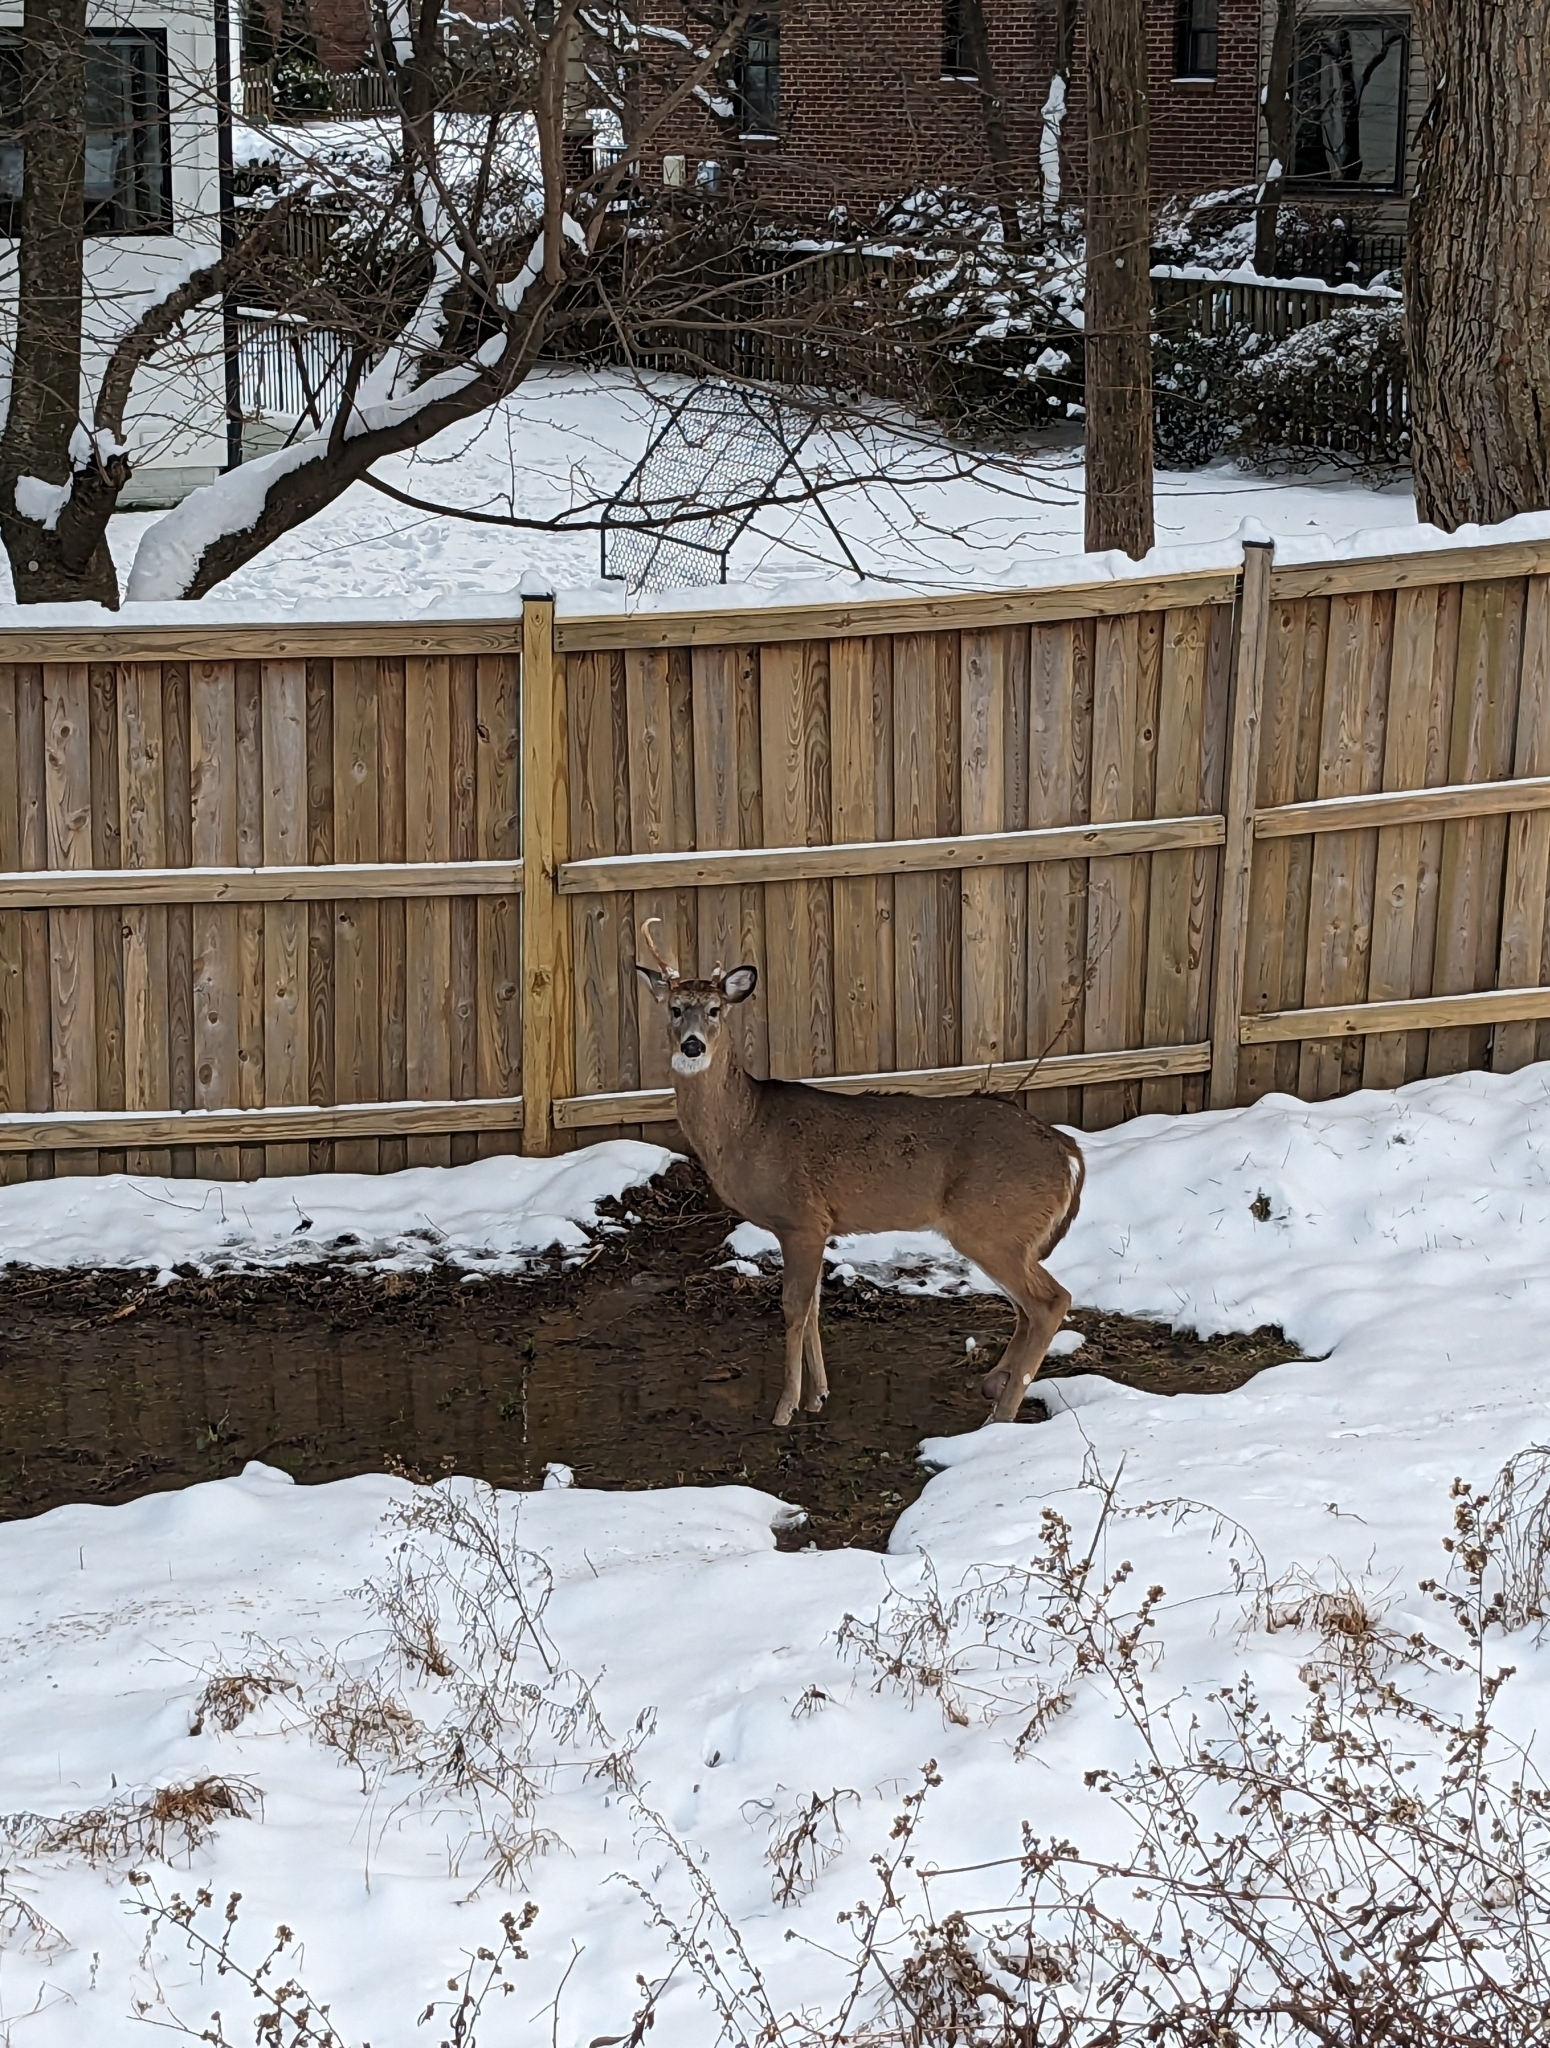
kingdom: Animalia
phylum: Chordata
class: Mammalia
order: Artiodactyla
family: Cervidae
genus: Odocoileus
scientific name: Odocoileus virginianus
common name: White-tailed deer
